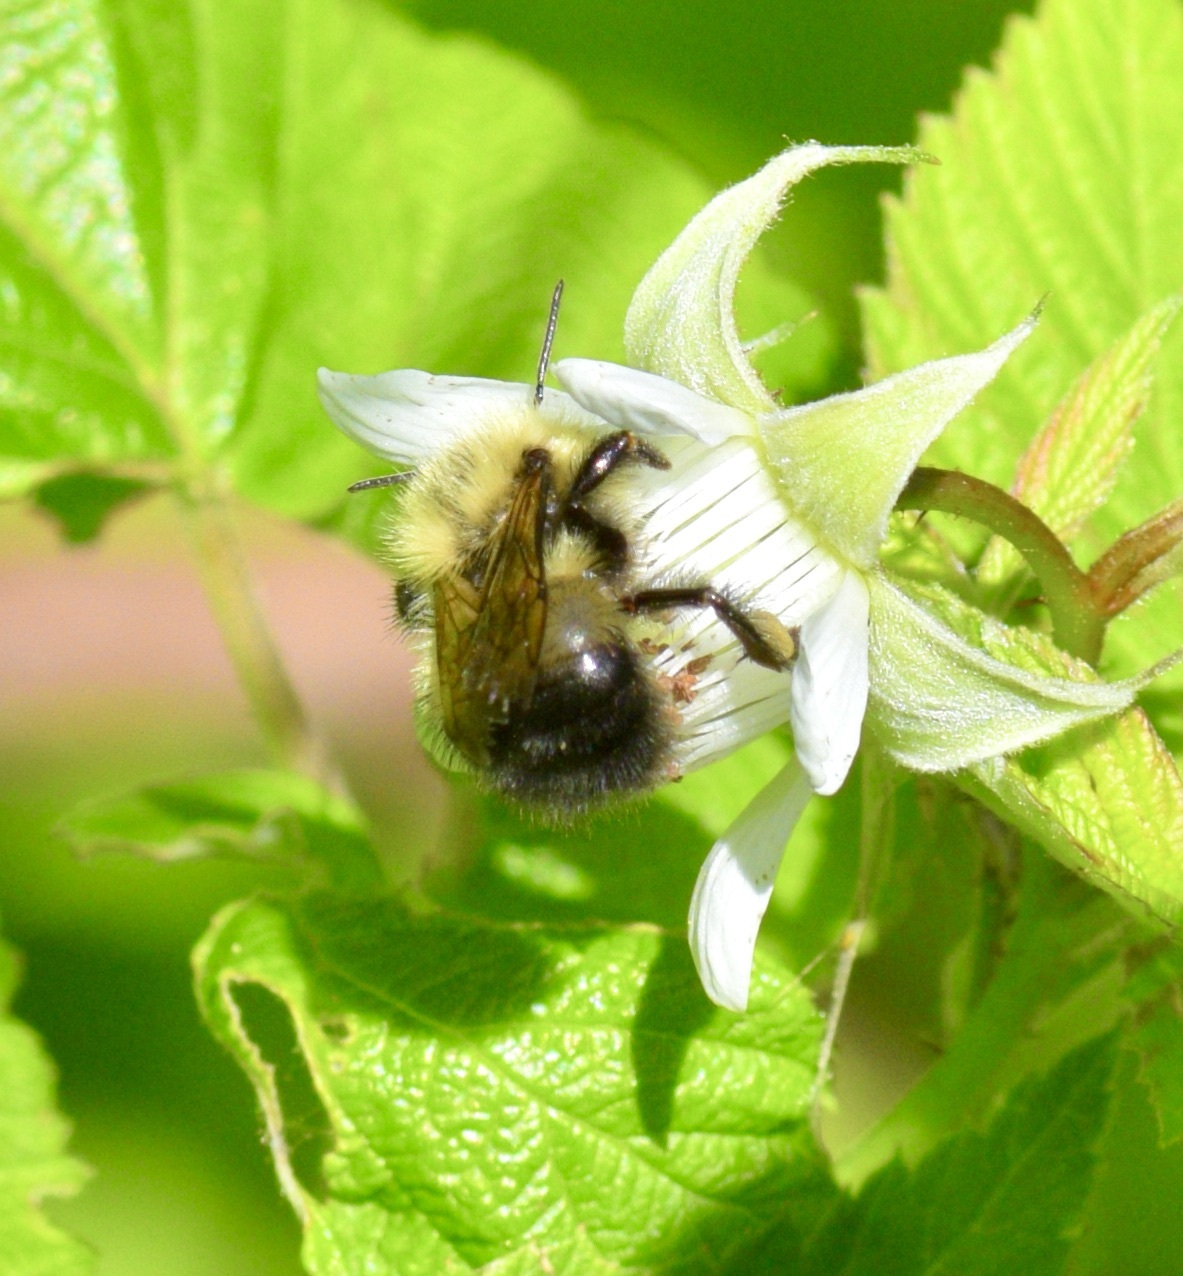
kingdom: Animalia
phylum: Arthropoda
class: Insecta
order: Hymenoptera
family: Apidae
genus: Pyrobombus
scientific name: Pyrobombus
